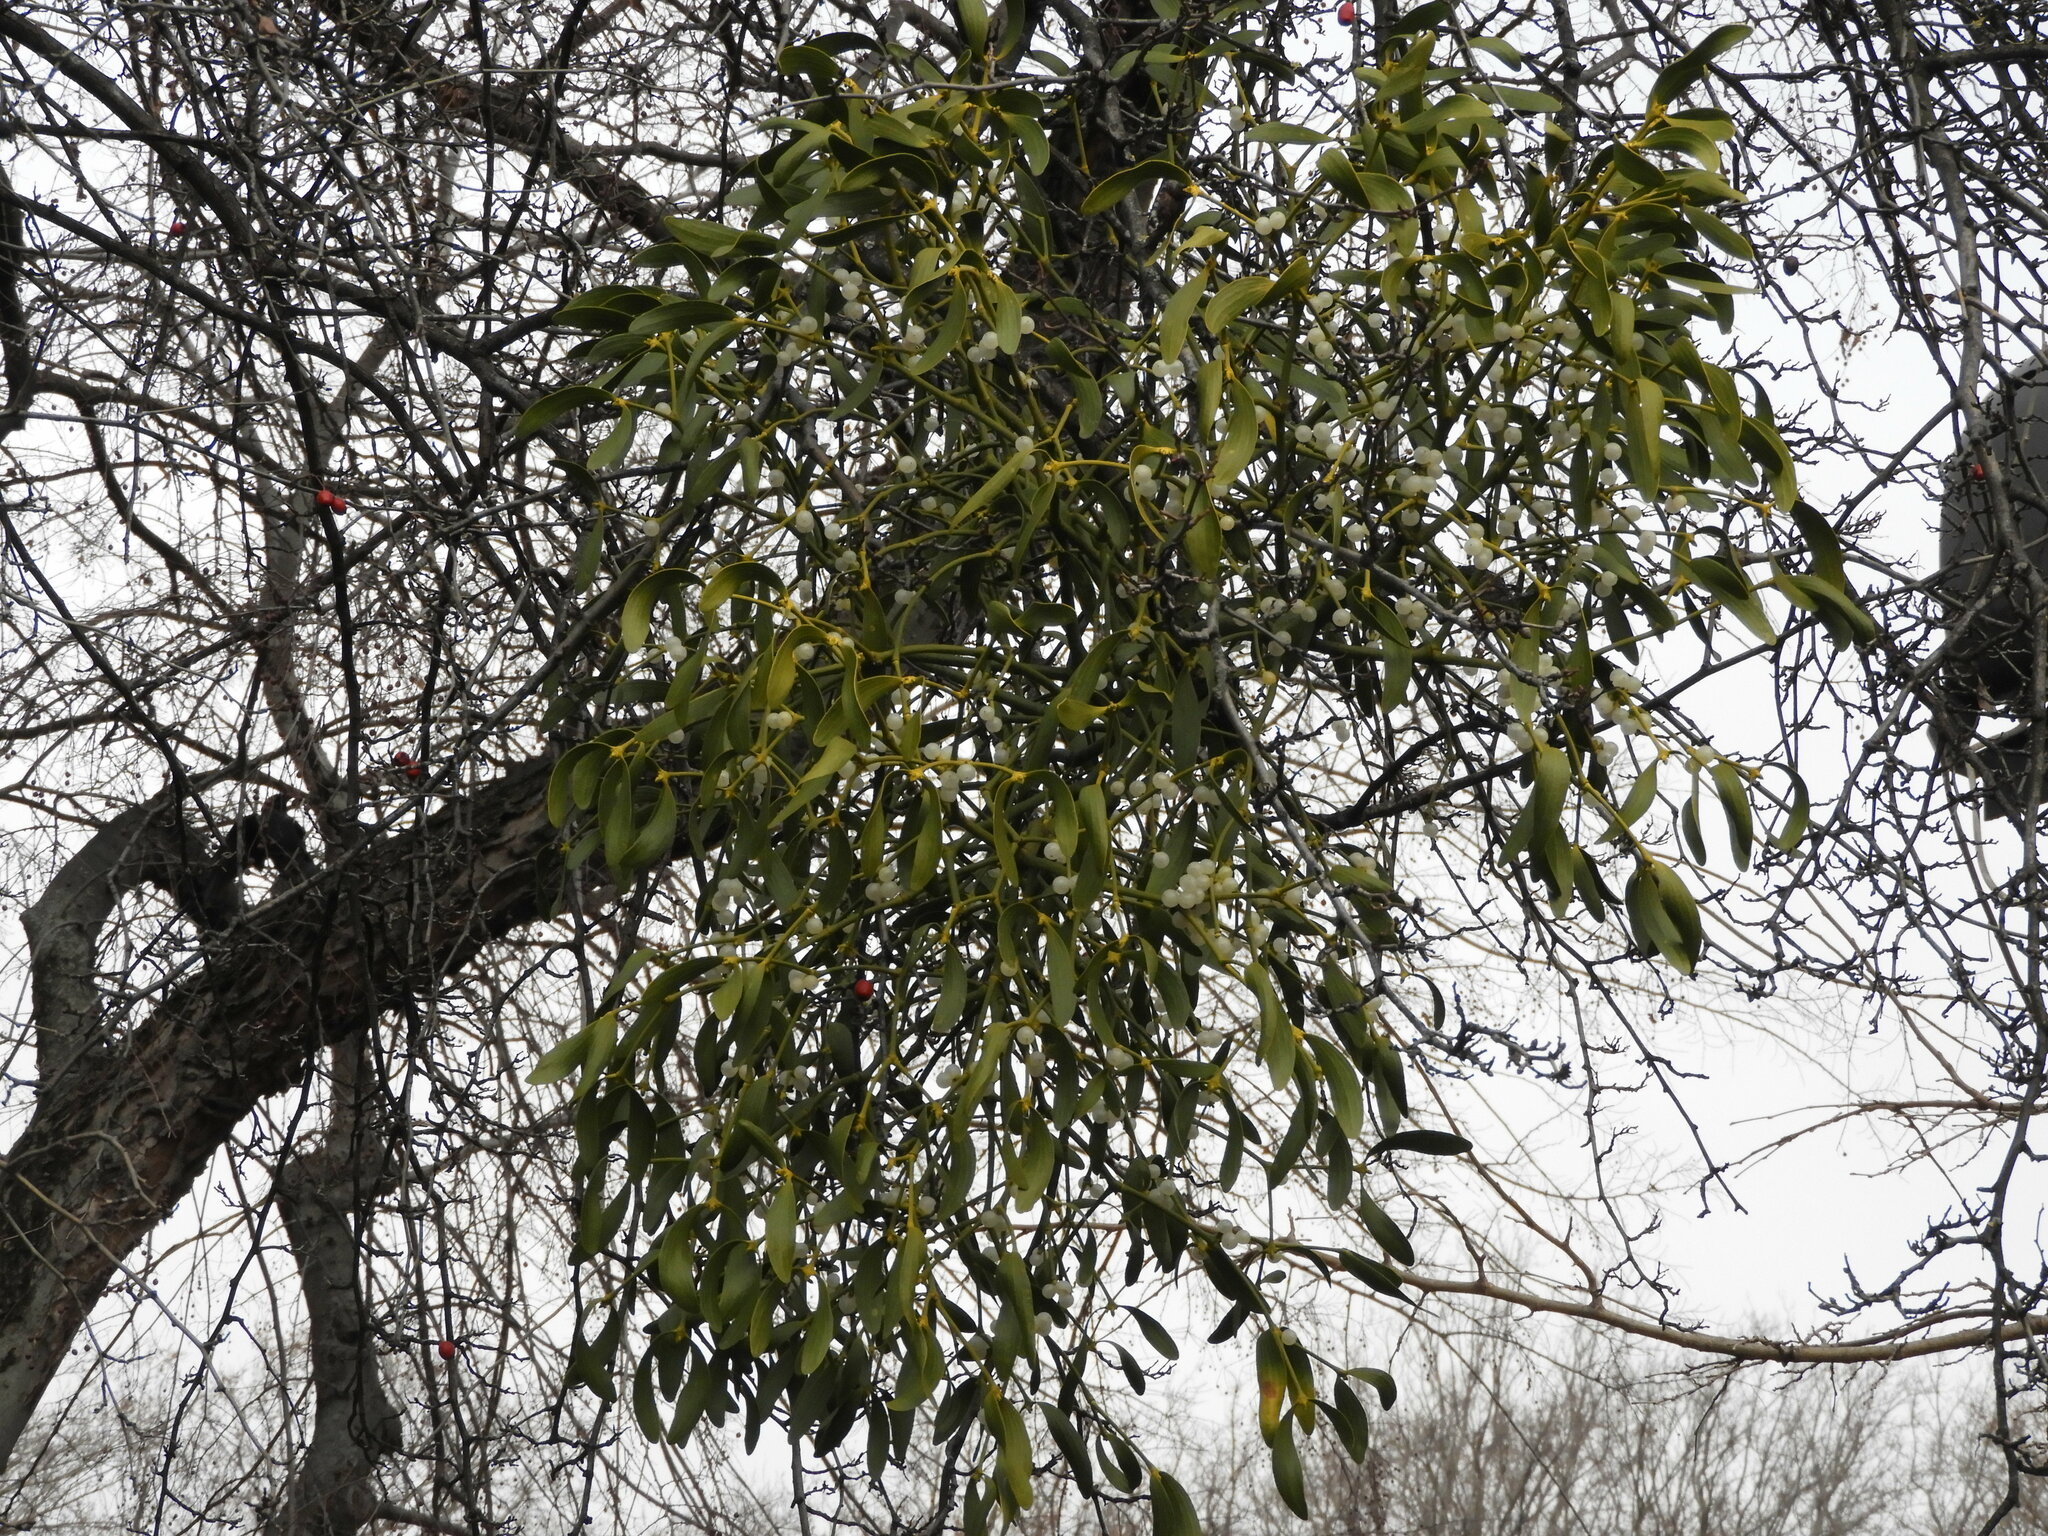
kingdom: Plantae
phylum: Tracheophyta
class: Magnoliopsida
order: Santalales
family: Viscaceae
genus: Viscum
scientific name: Viscum album
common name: Mistletoe
